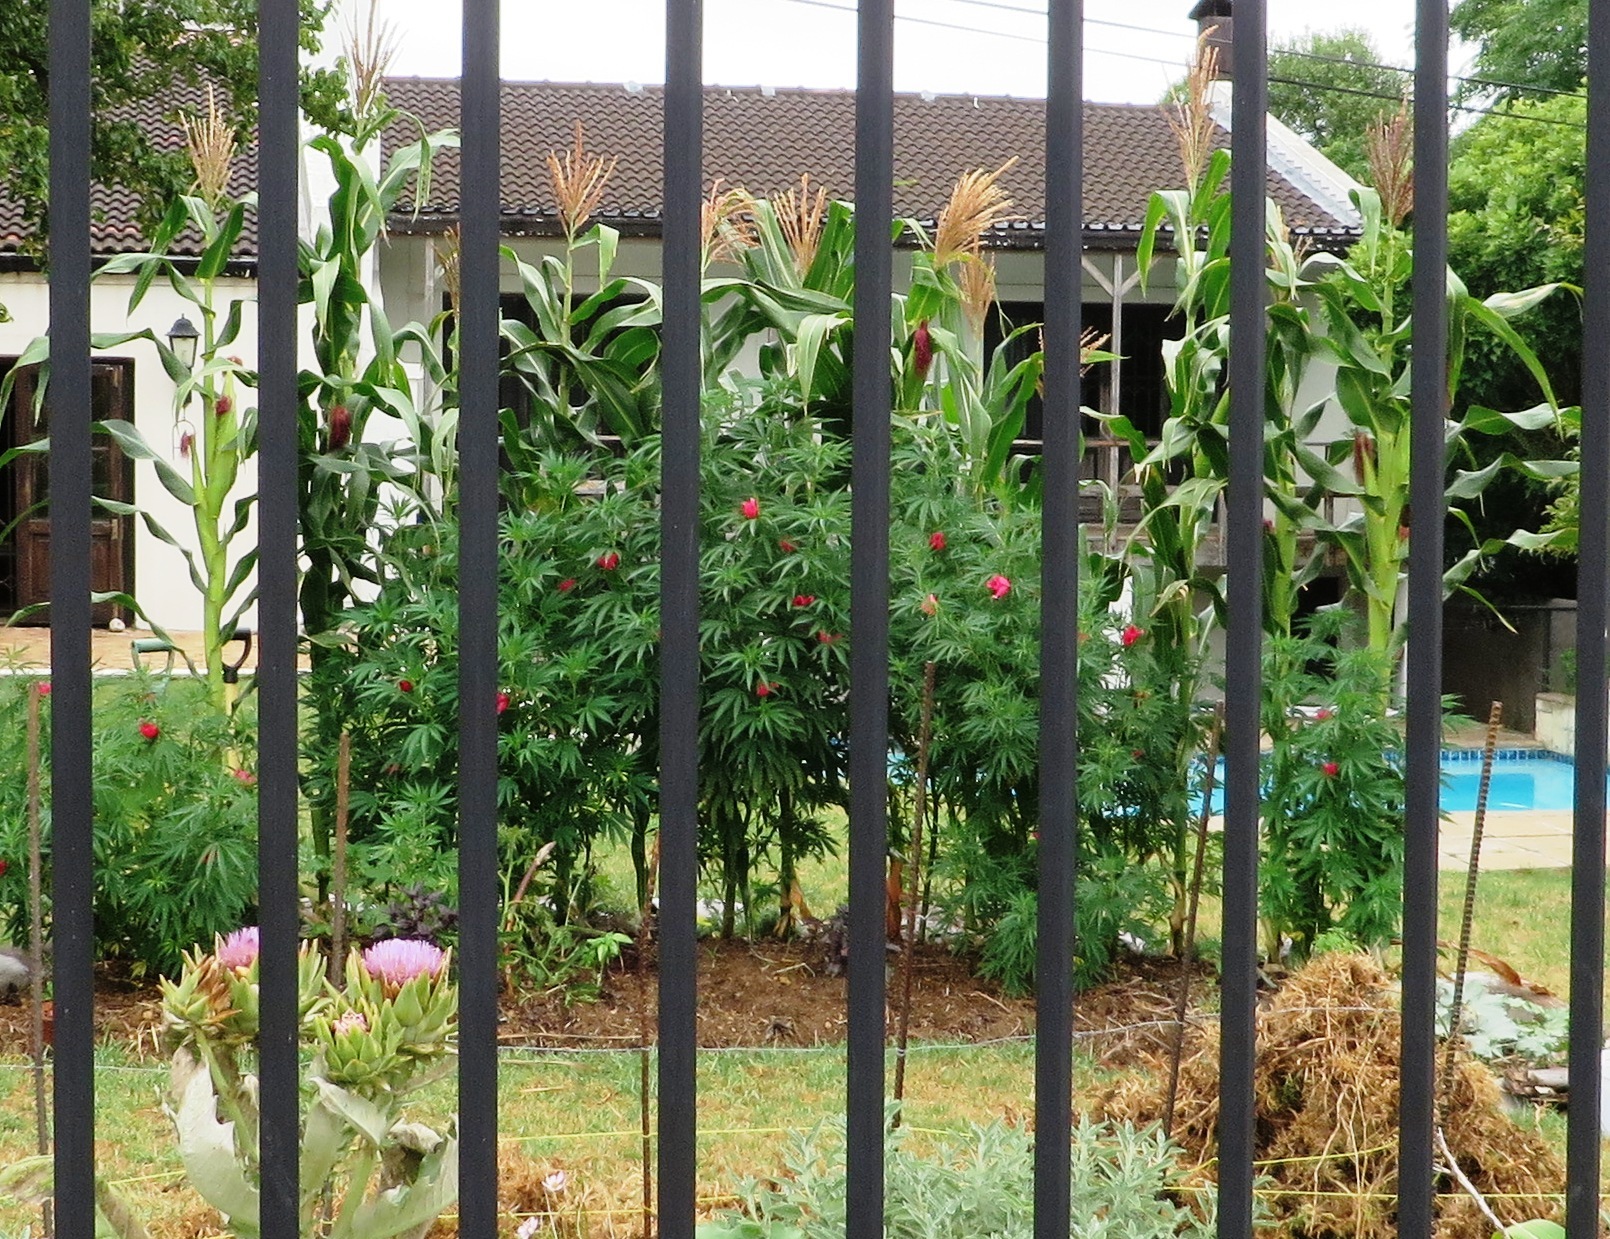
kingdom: Plantae
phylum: Tracheophyta
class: Magnoliopsida
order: Rosales
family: Cannabaceae
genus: Cannabis
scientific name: Cannabis sativa
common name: Hemp
